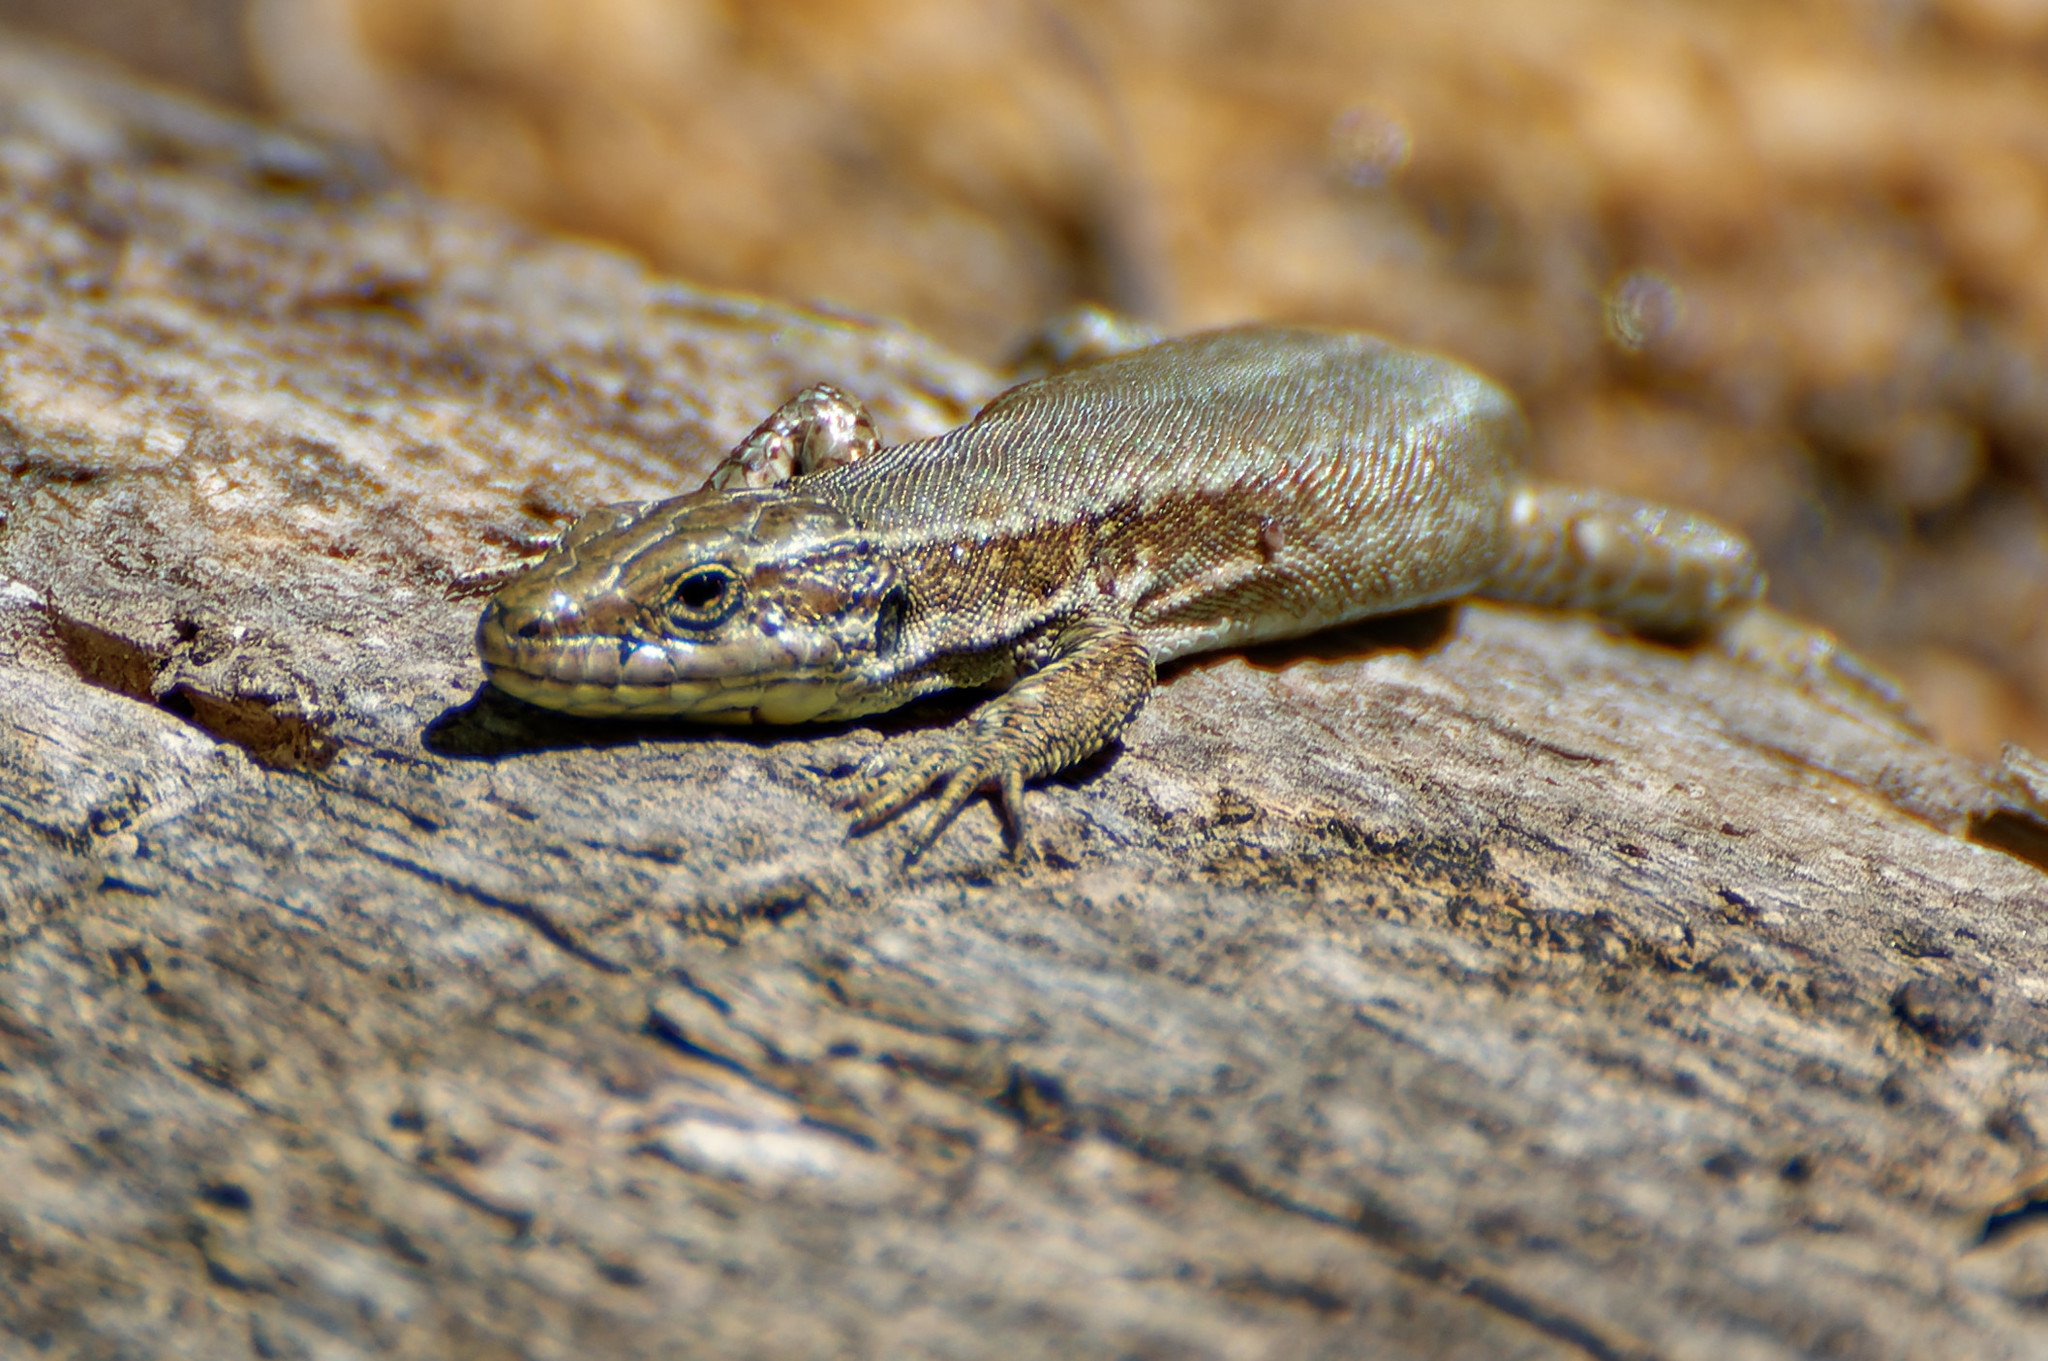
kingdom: Animalia
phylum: Chordata
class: Squamata
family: Lacertidae
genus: Podarcis
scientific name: Podarcis muralis
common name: Common wall lizard
